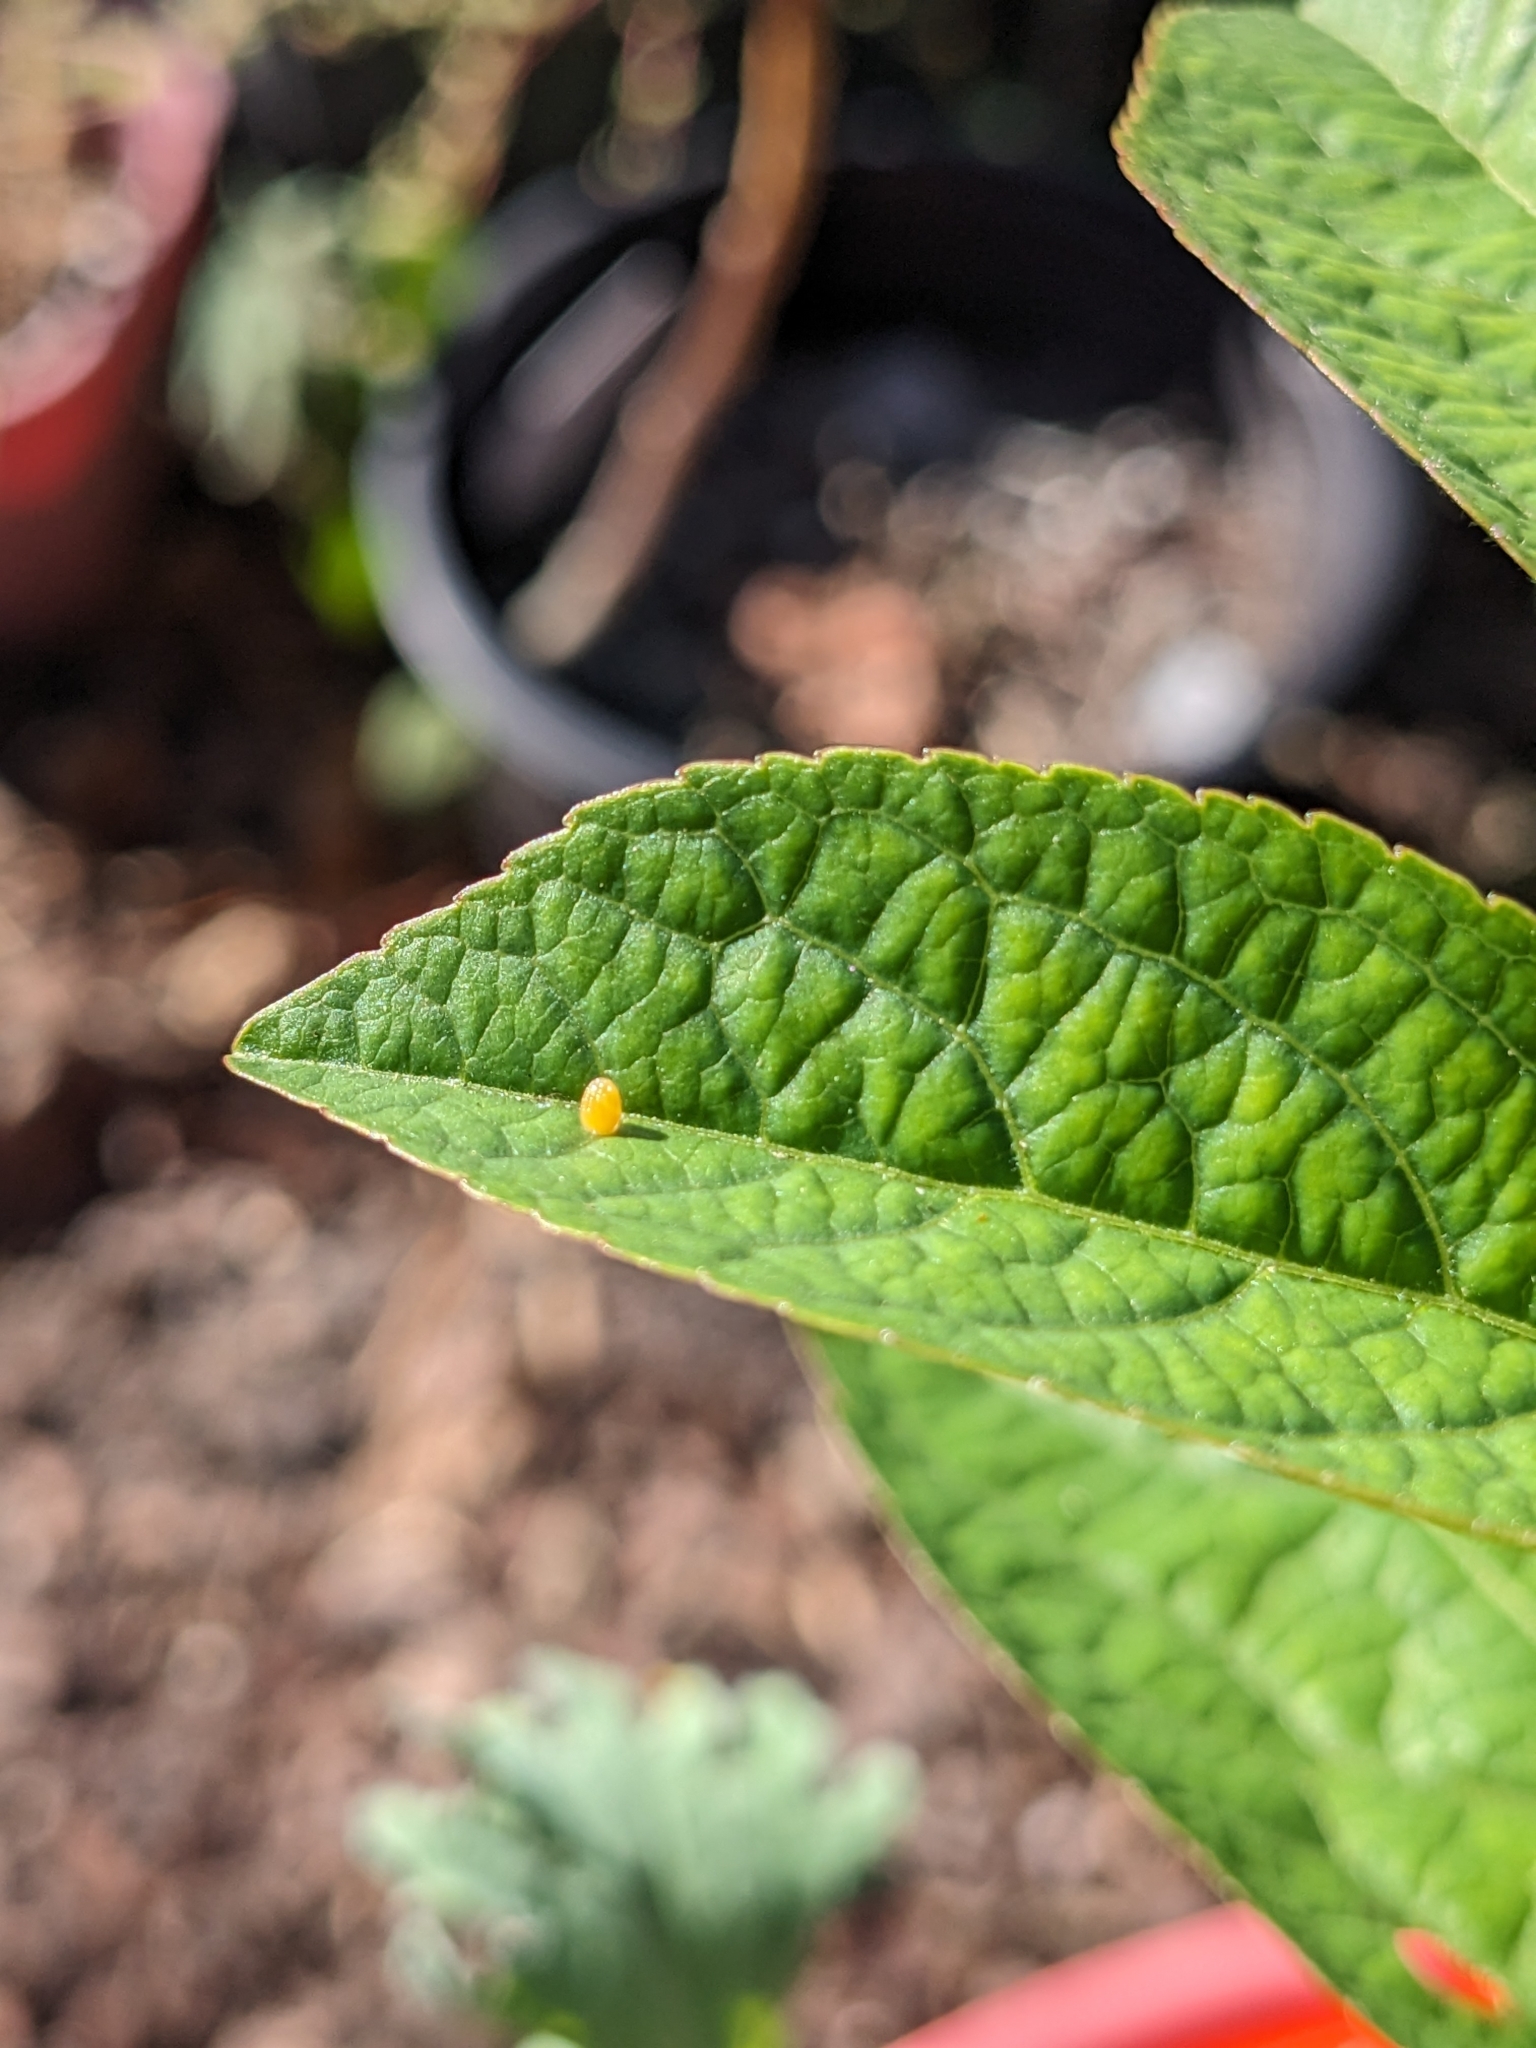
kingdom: Animalia
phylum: Arthropoda
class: Insecta
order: Lepidoptera
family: Nymphalidae
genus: Dione
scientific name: Dione vanillae
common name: Gulf fritillary
